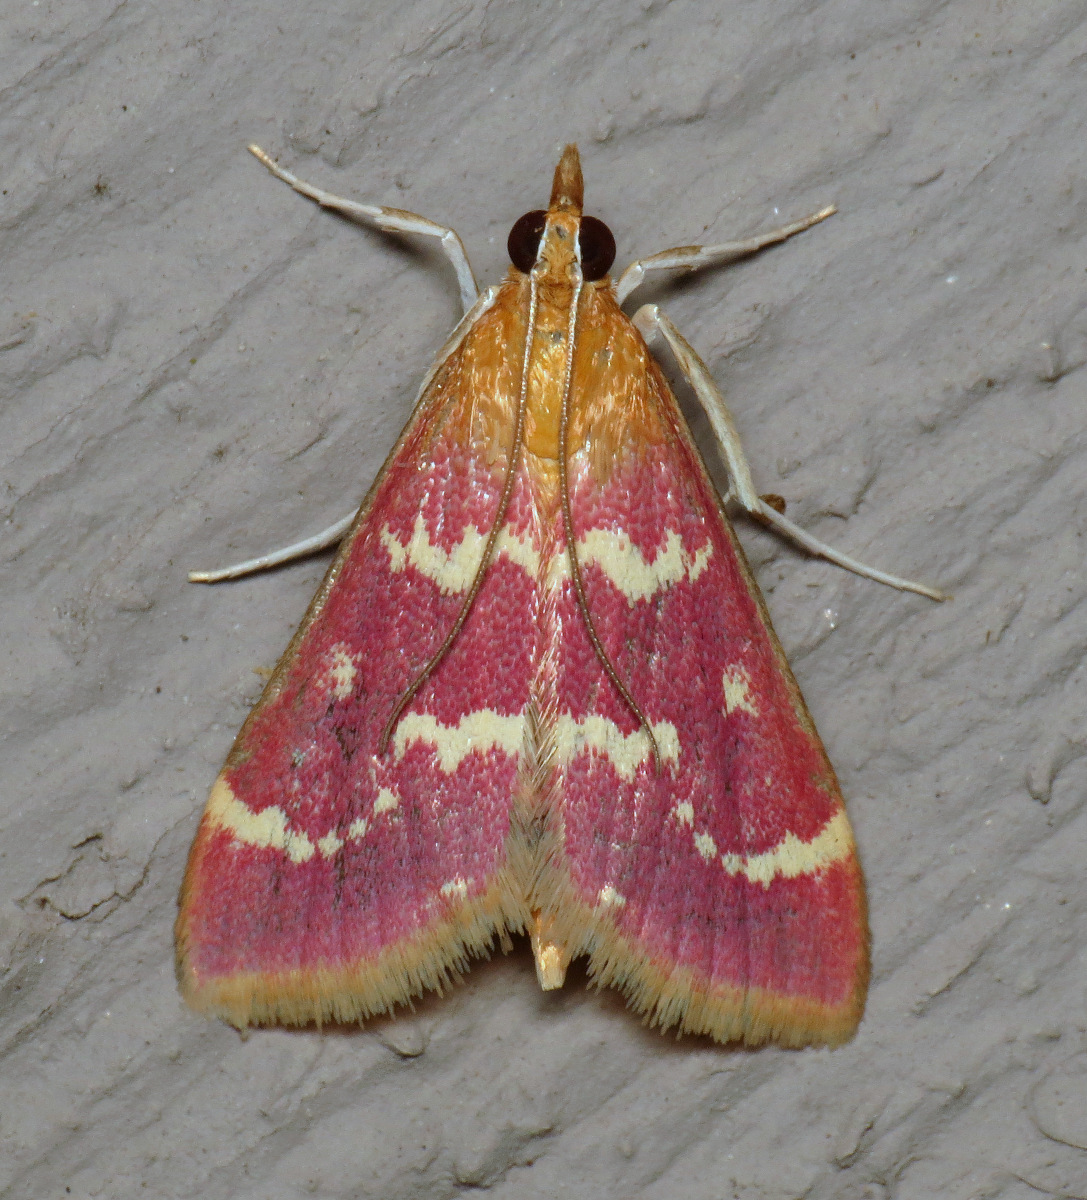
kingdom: Animalia
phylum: Arthropoda
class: Insecta
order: Lepidoptera
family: Crambidae
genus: Pyrausta
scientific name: Pyrausta signatalis
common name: Raspberry pyrausta moth
